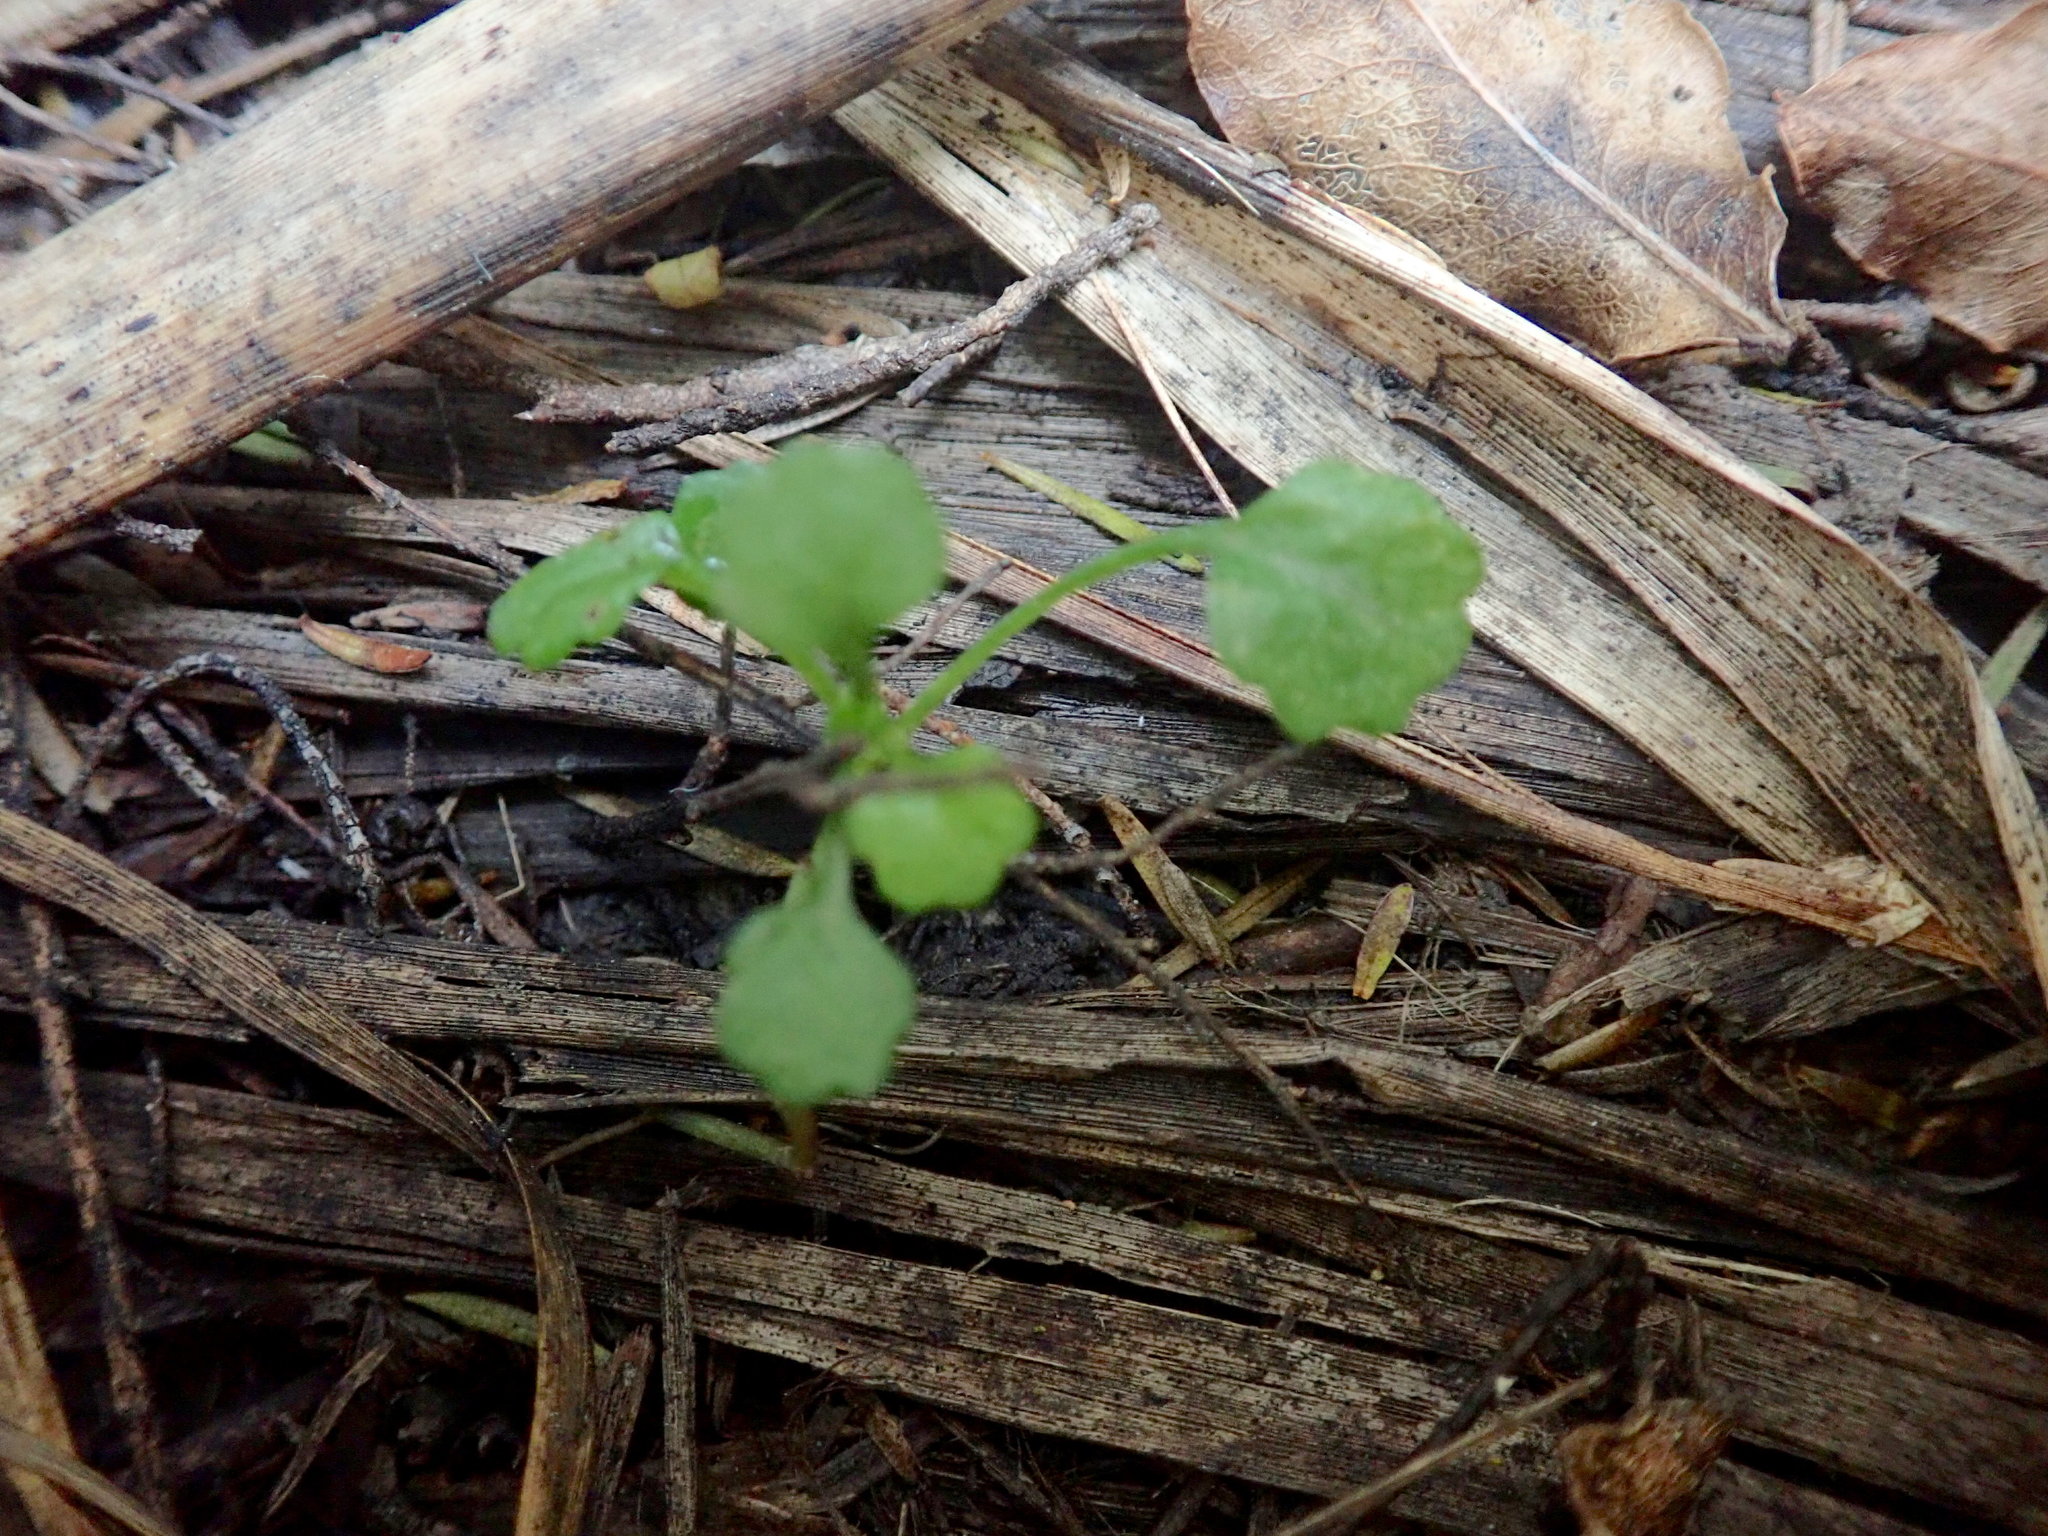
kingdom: Plantae
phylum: Tracheophyta
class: Magnoliopsida
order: Asterales
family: Asteraceae
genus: Leucanthemum
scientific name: Leucanthemum vulgare
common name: Oxeye daisy
